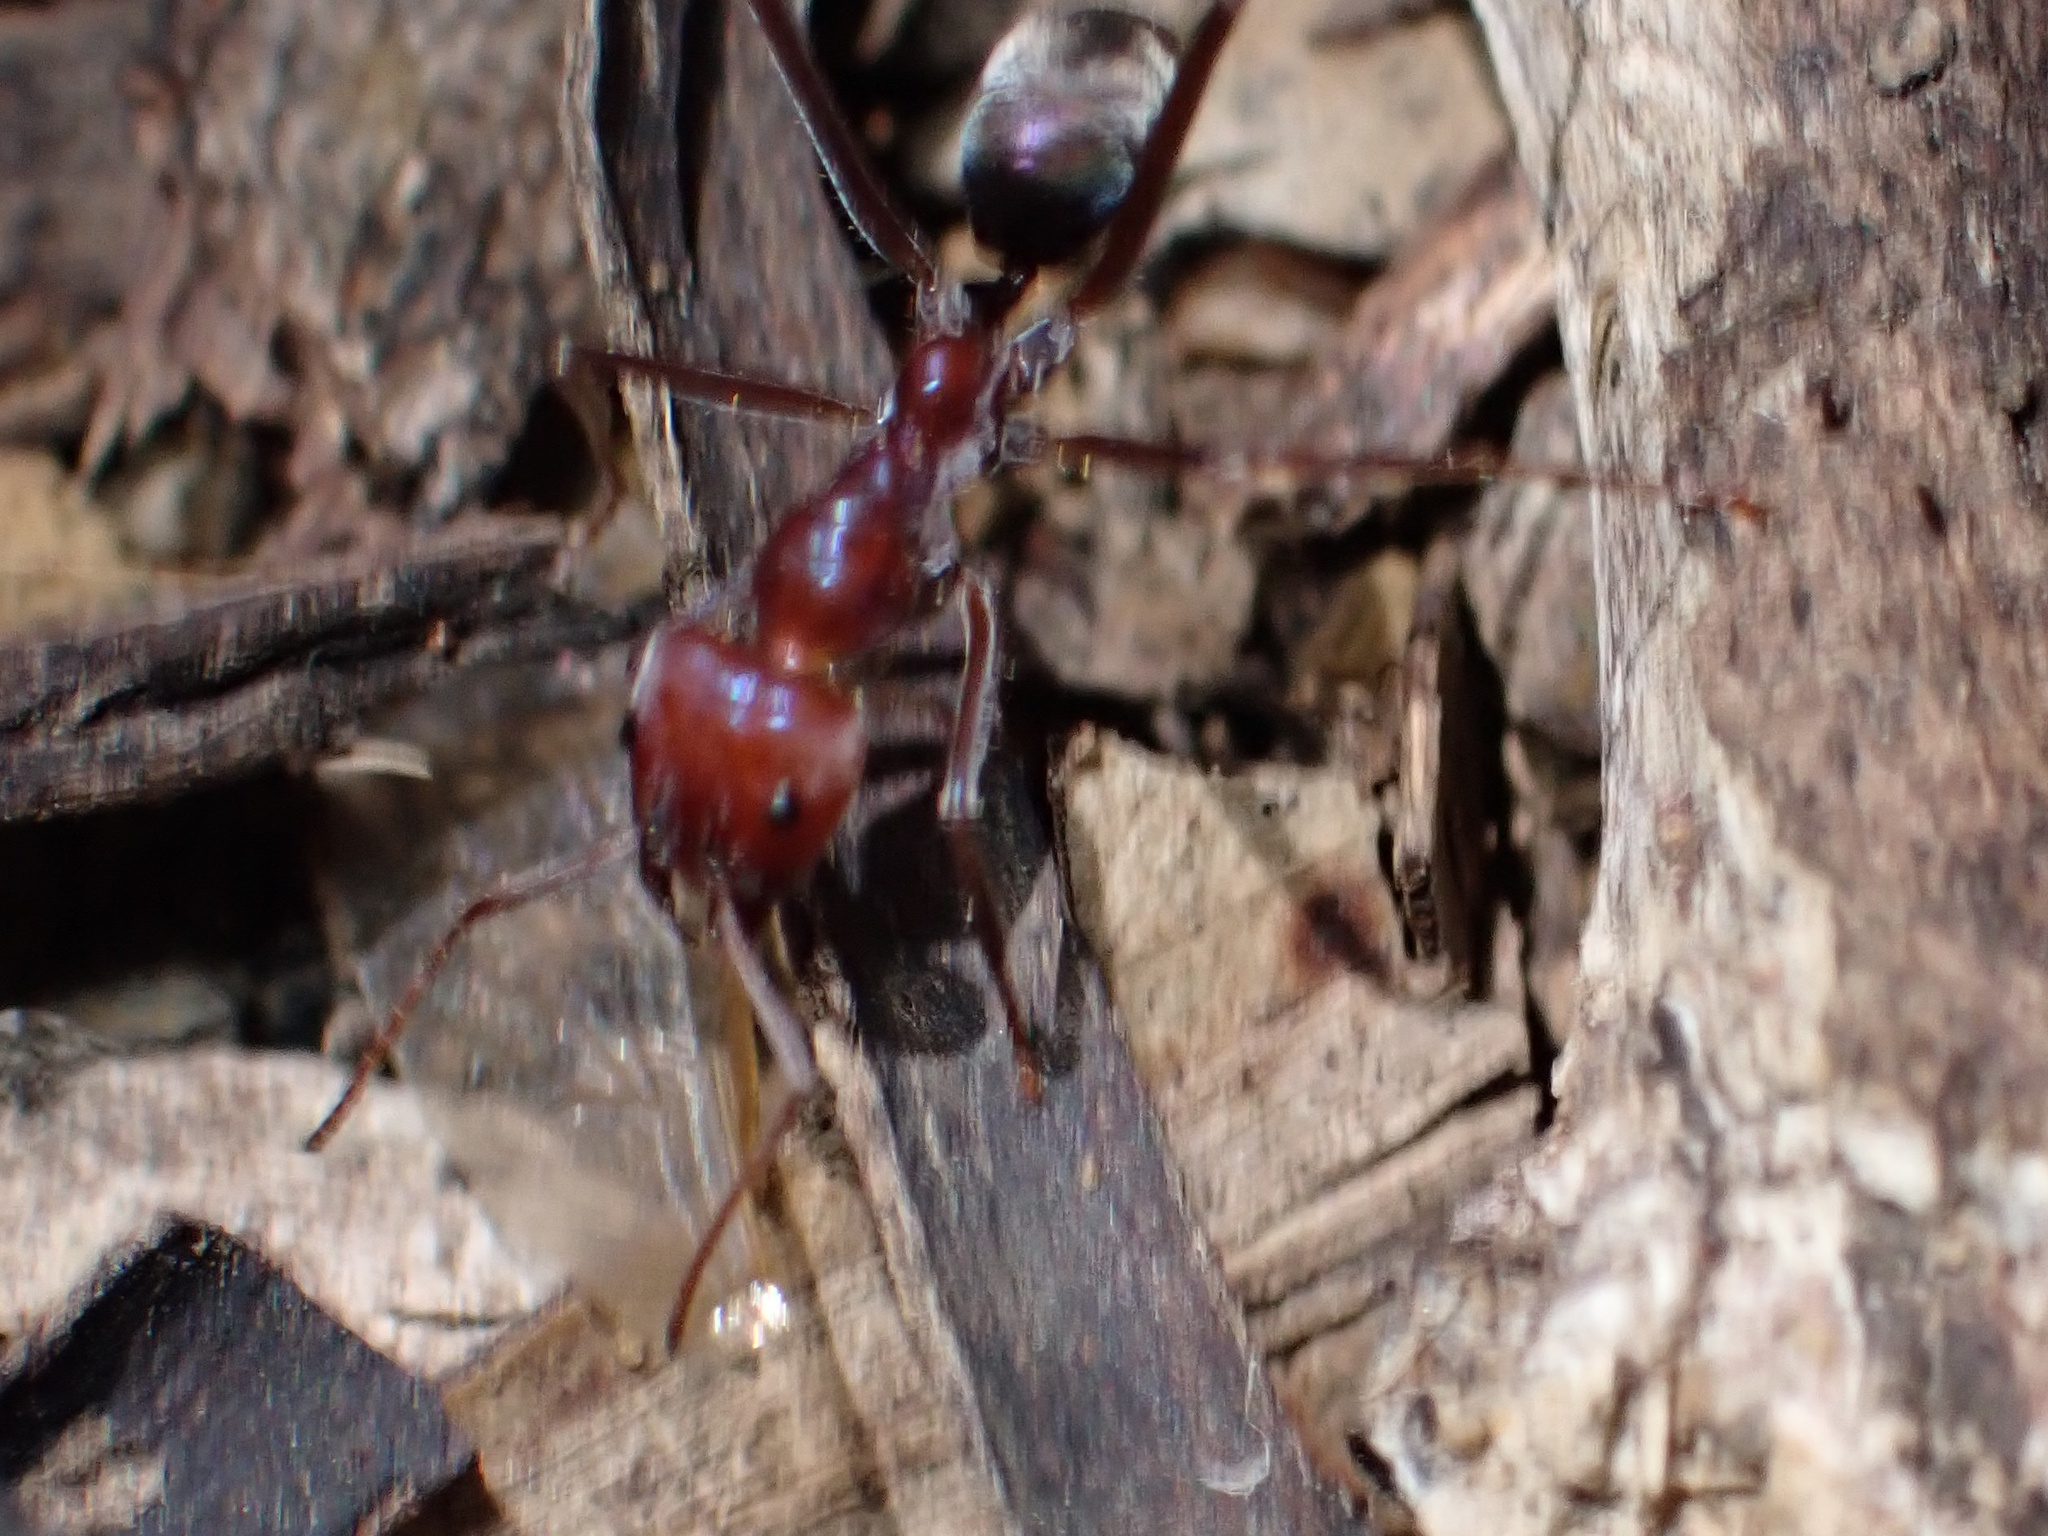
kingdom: Animalia
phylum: Arthropoda
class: Insecta
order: Hymenoptera
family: Formicidae
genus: Iridomyrmex
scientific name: Iridomyrmex purpureus
